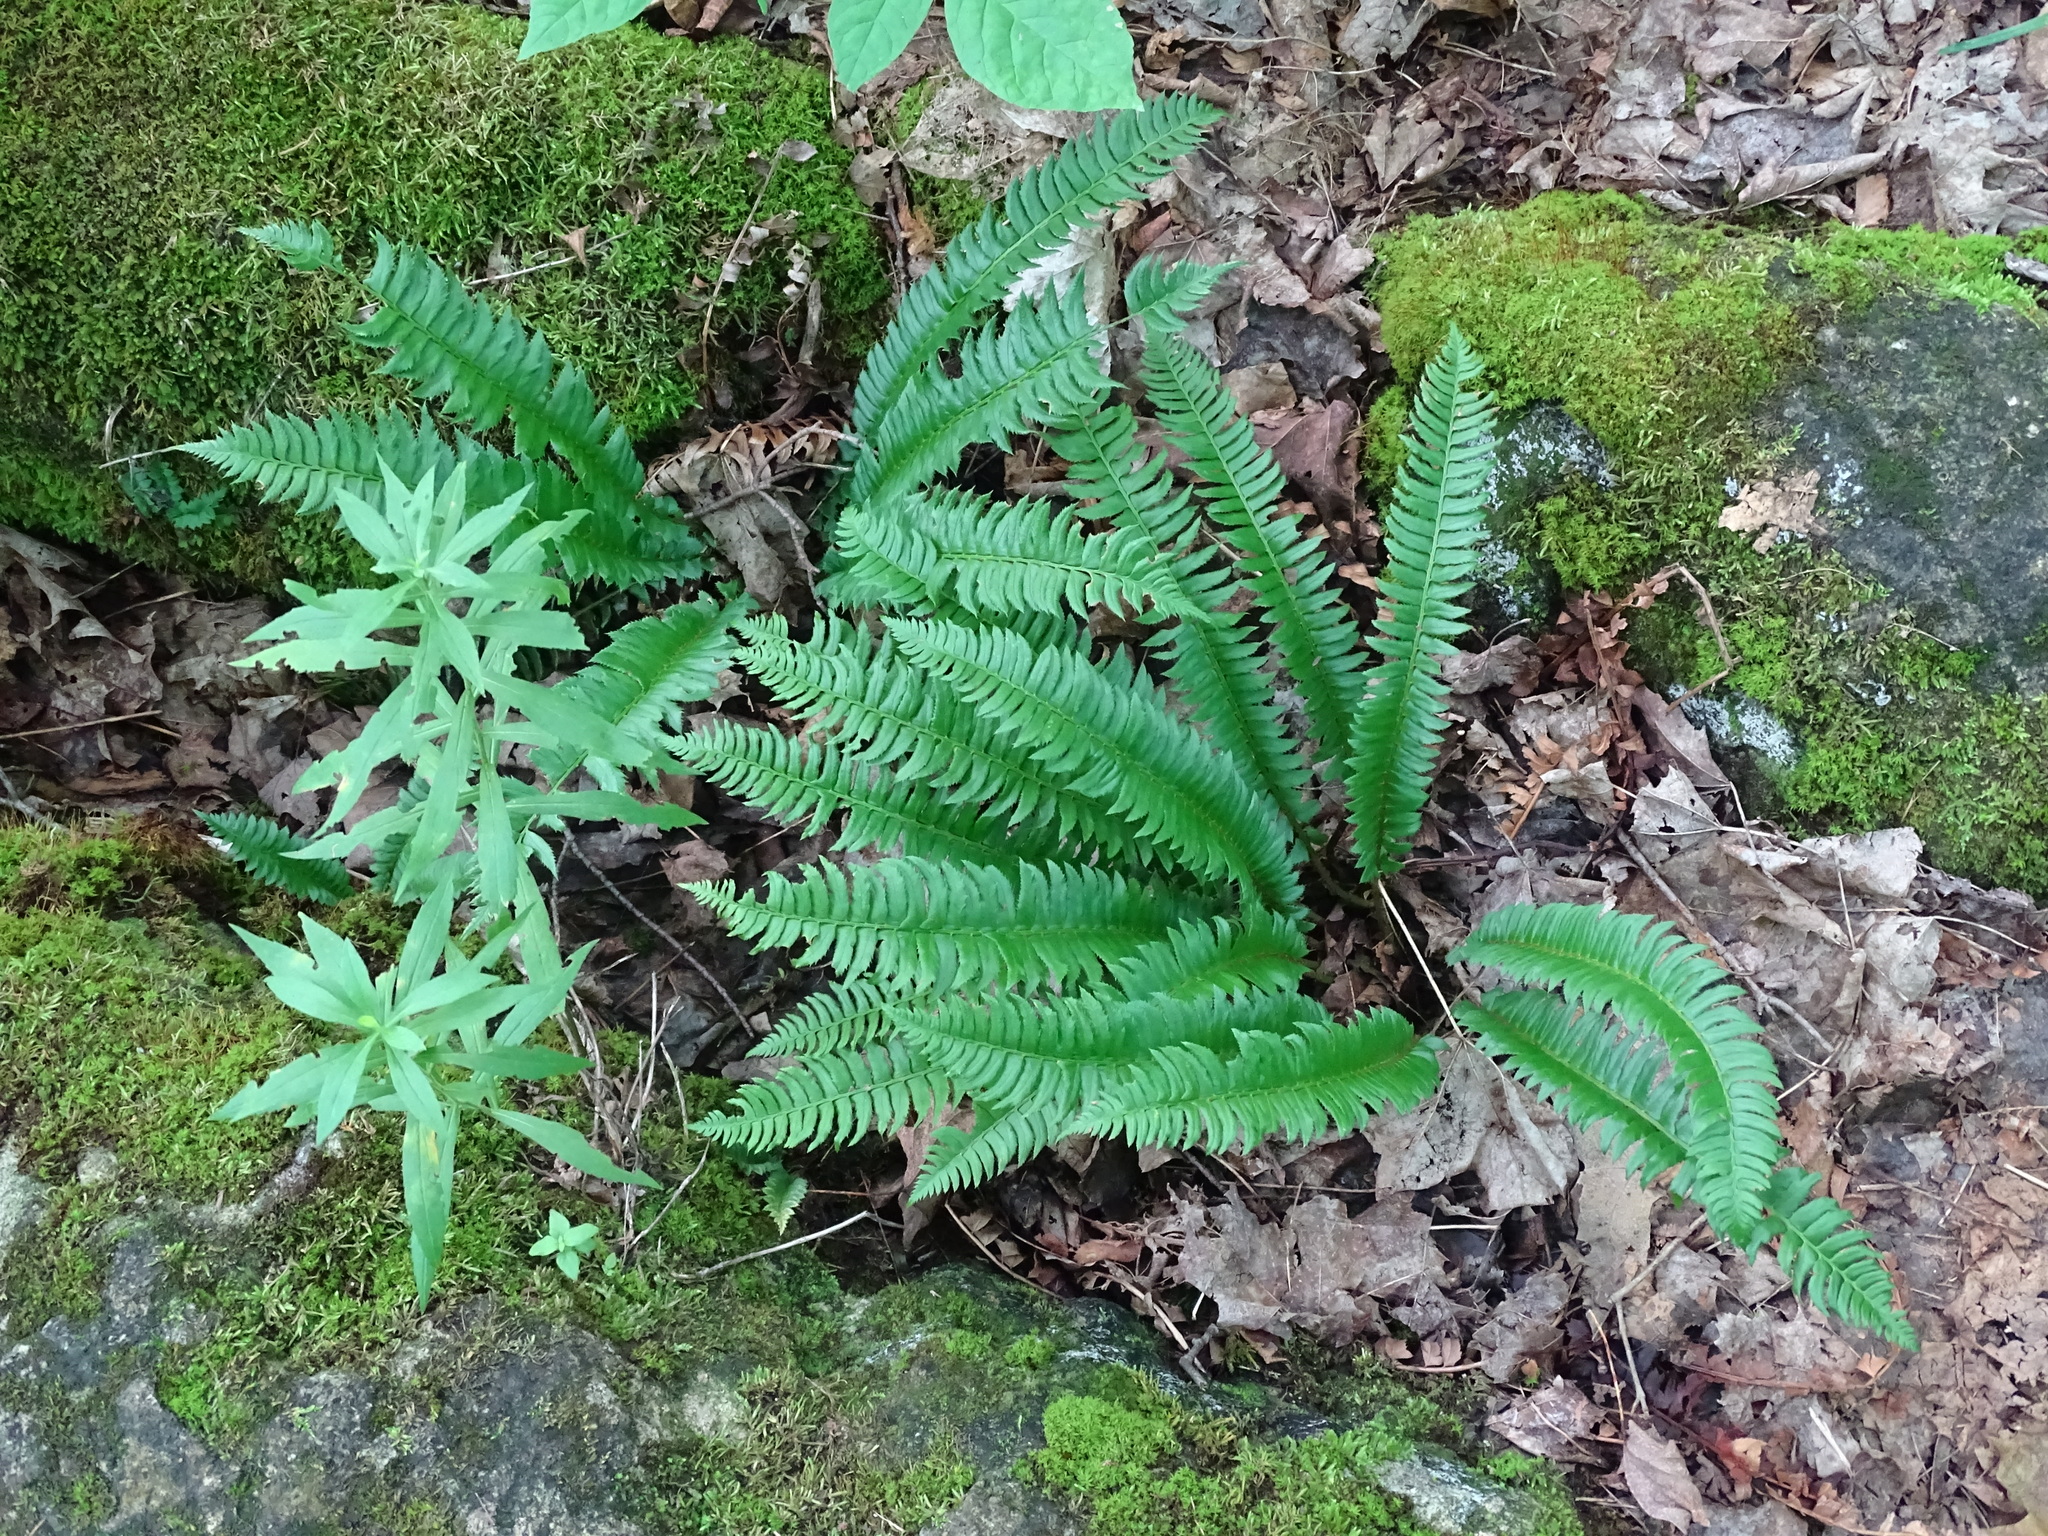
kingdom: Plantae
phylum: Tracheophyta
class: Polypodiopsida
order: Polypodiales
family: Dryopteridaceae
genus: Polystichum
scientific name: Polystichum lonchitis
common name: Holly fern
